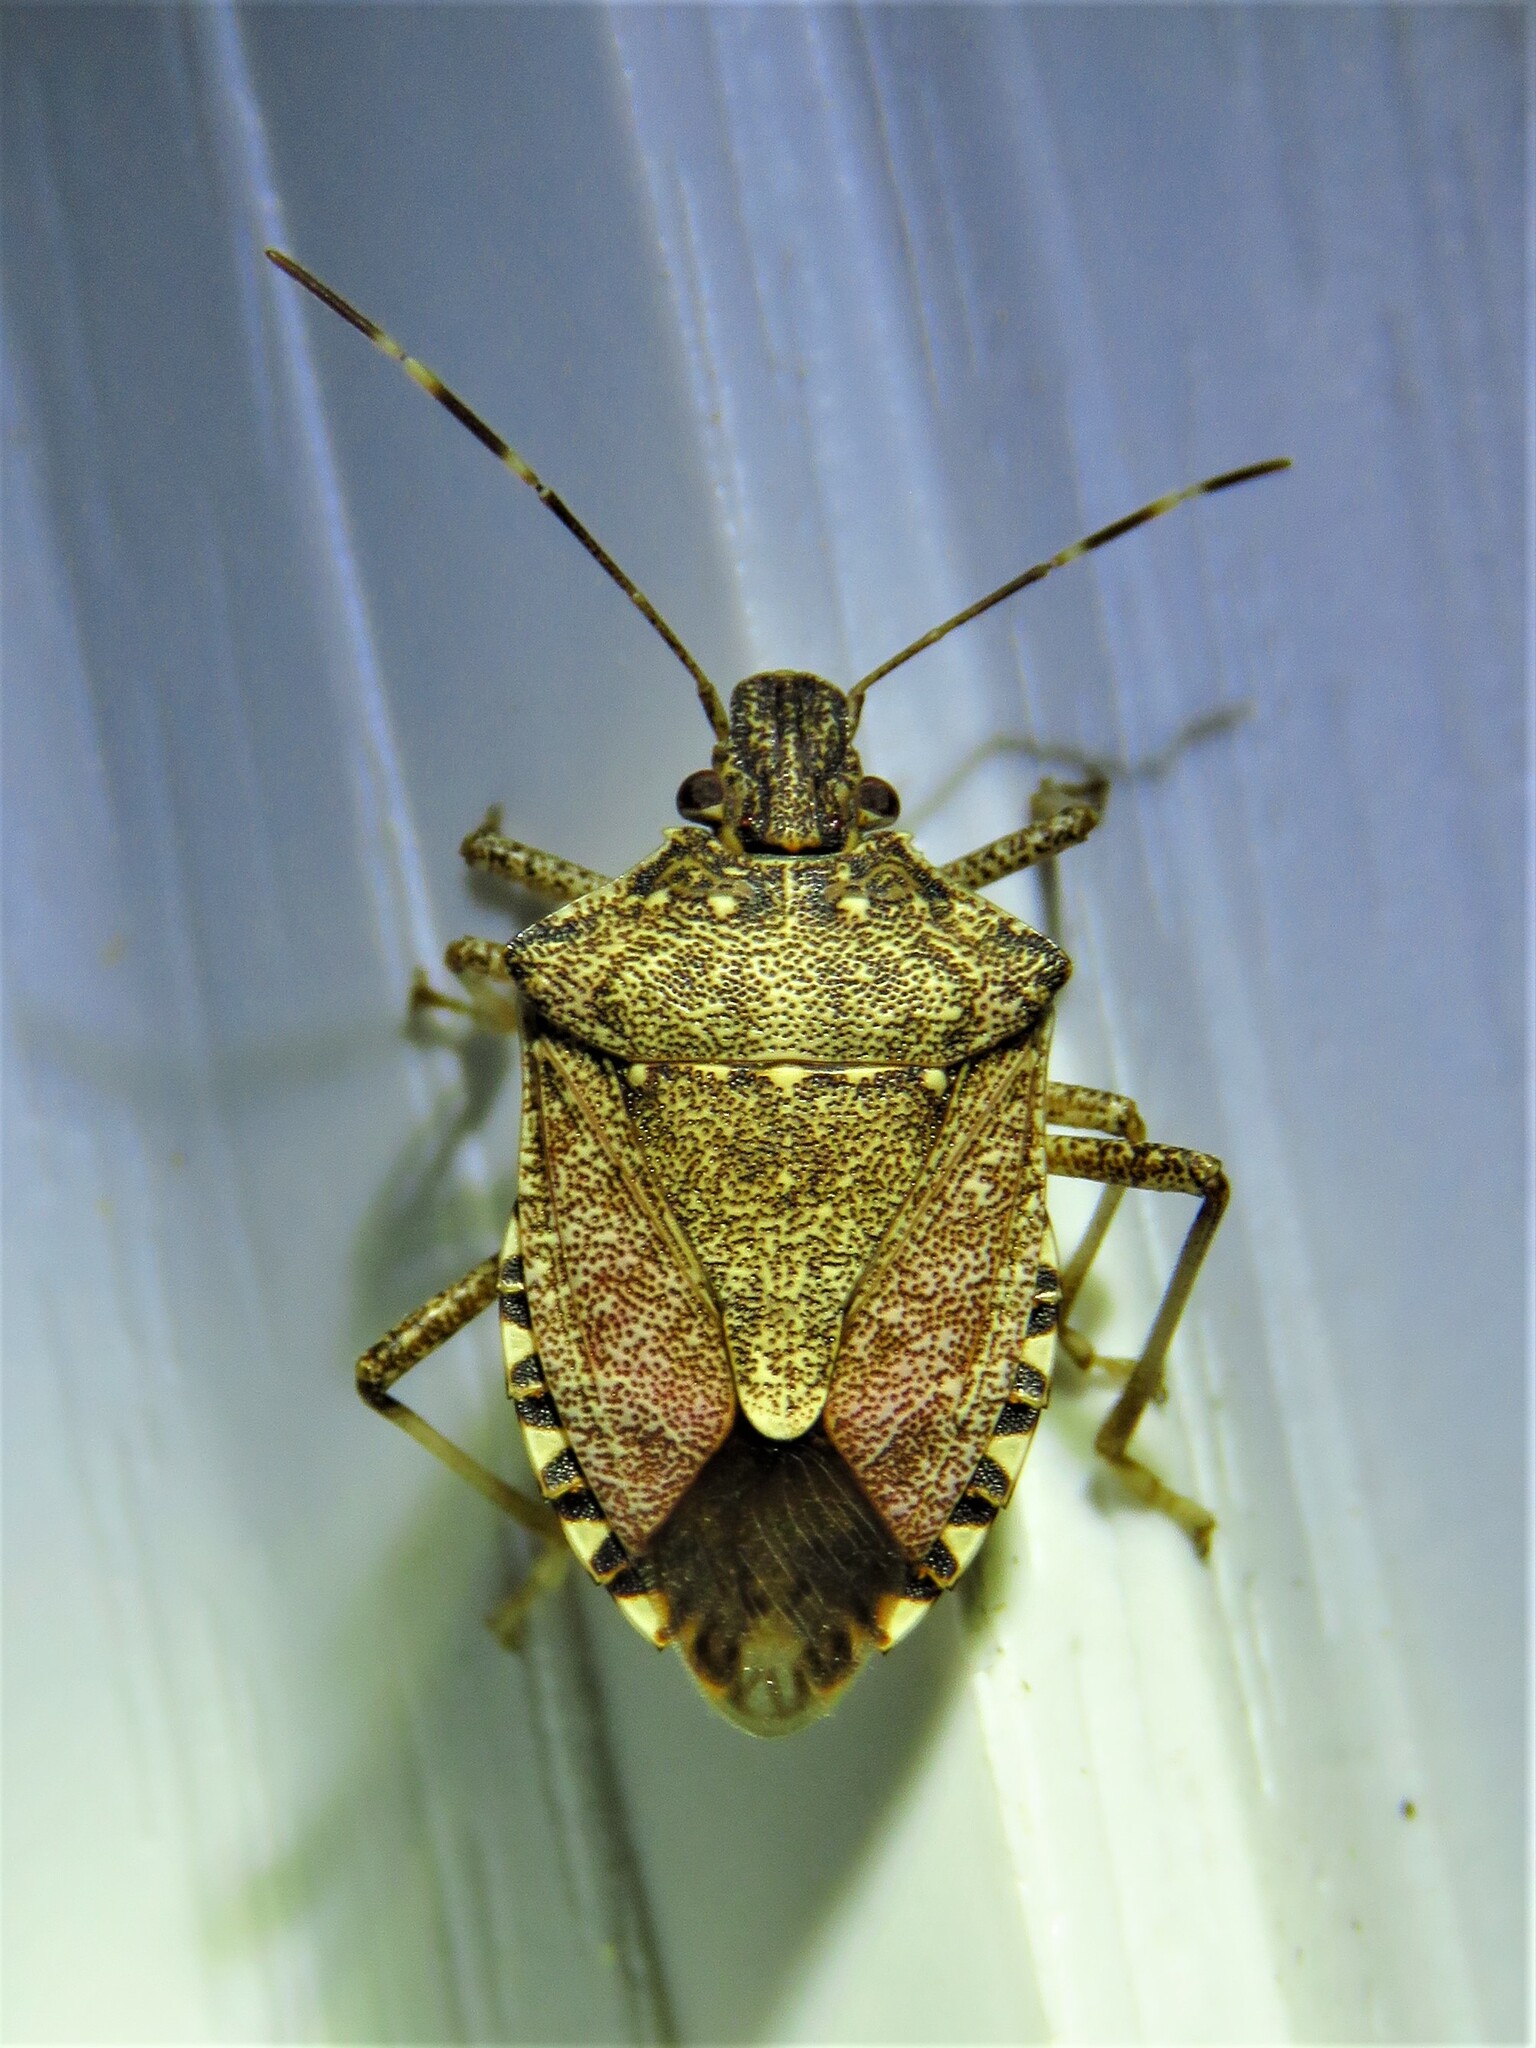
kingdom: Animalia
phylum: Arthropoda
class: Insecta
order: Hemiptera
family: Pentatomidae
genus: Halyomorpha
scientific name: Halyomorpha halys
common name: Brown marmorated stink bug
